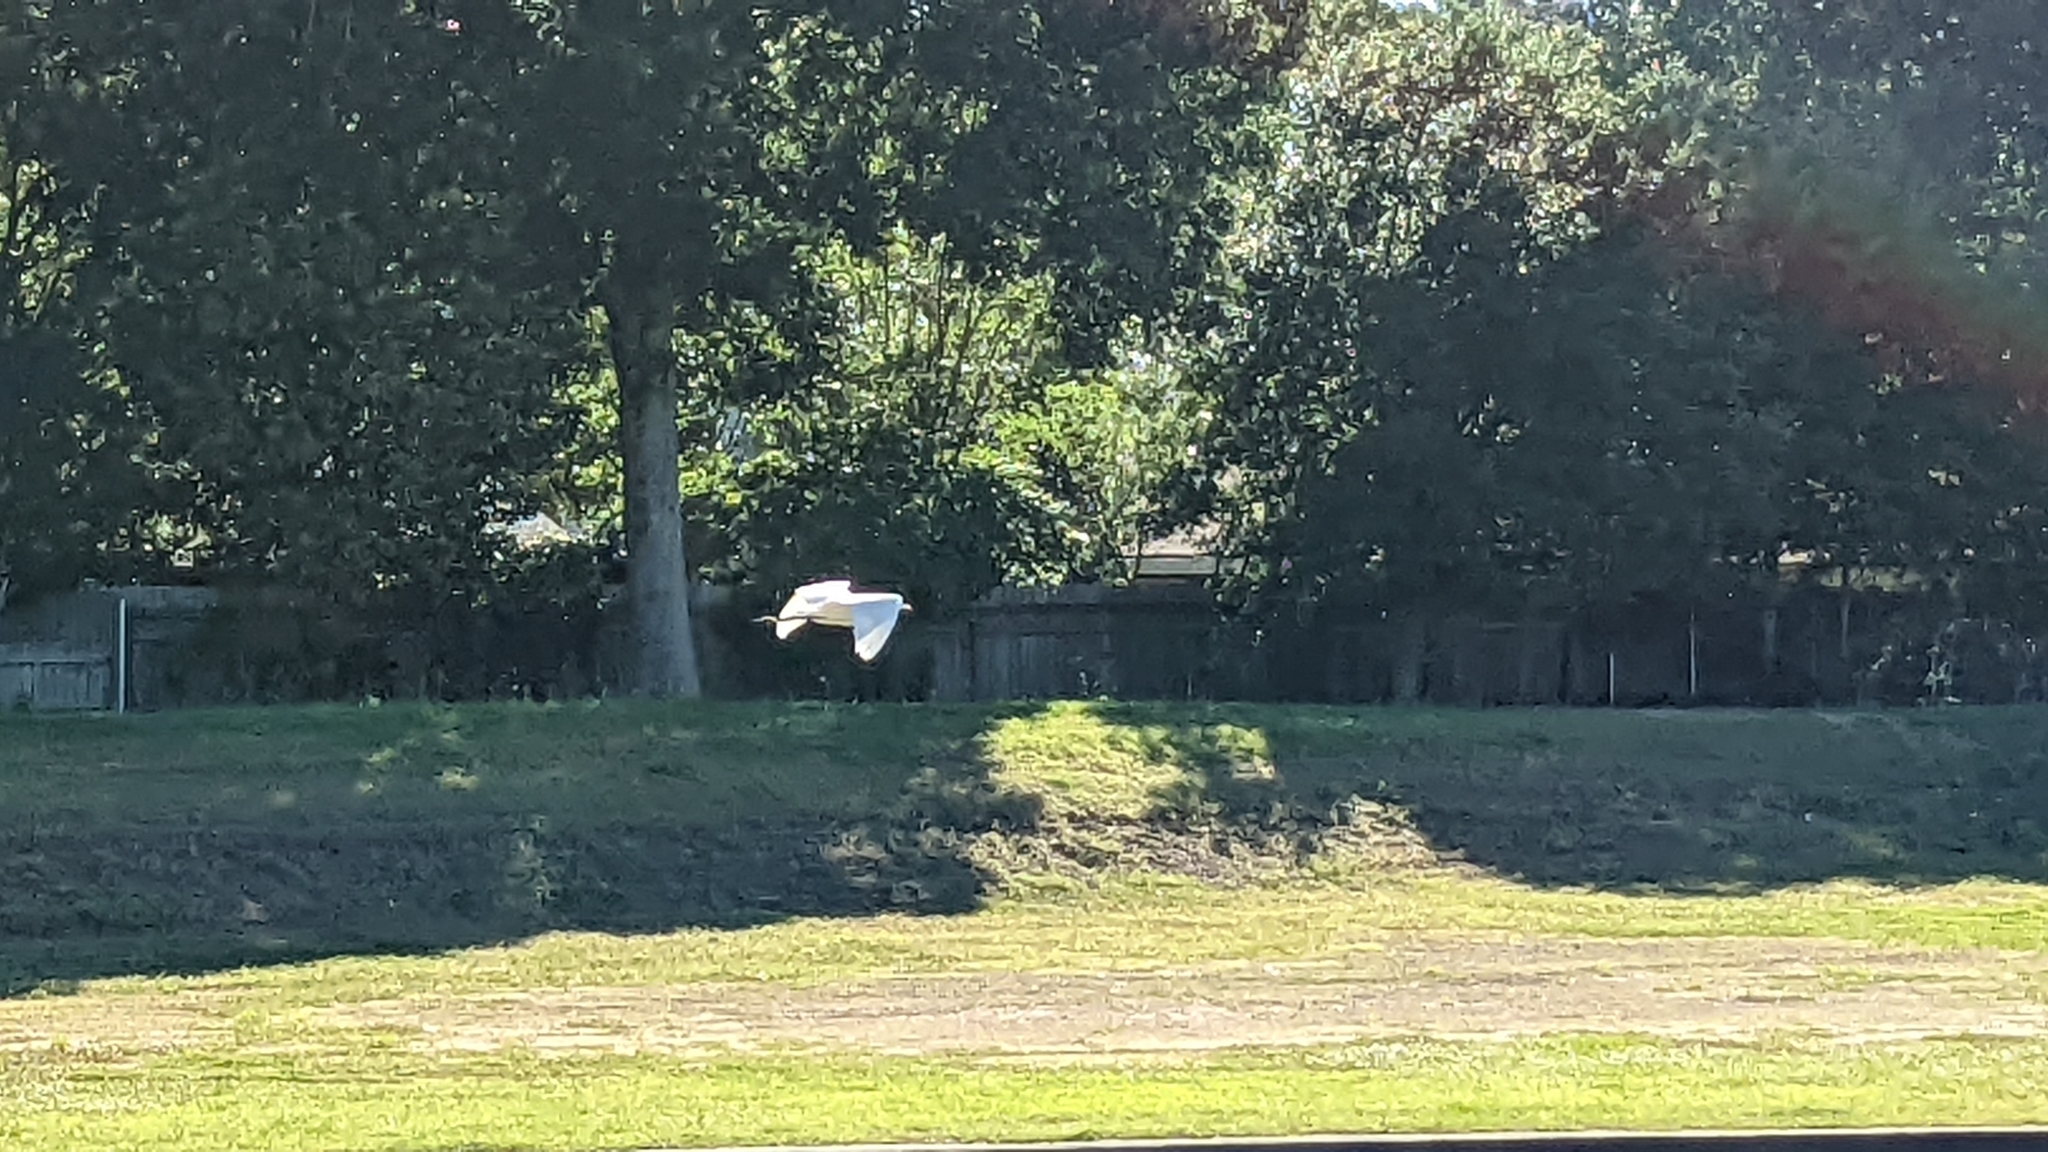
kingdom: Animalia
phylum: Chordata
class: Aves
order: Pelecaniformes
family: Ardeidae
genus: Ardea
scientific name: Ardea alba
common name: Great egret
